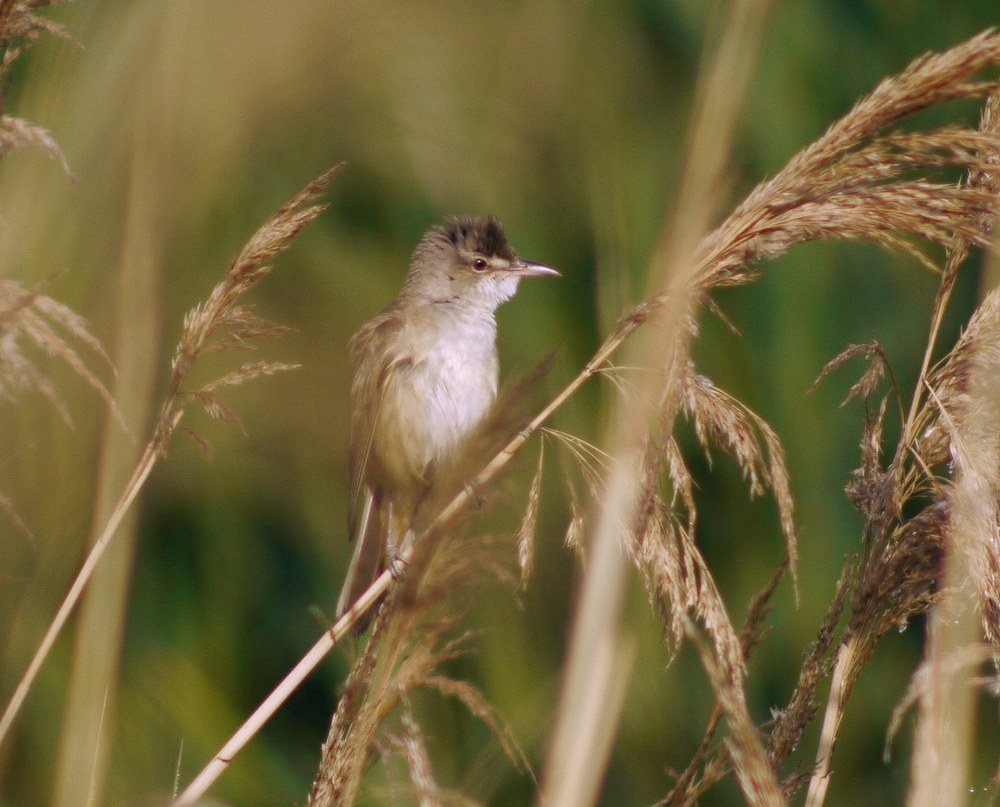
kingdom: Animalia
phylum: Chordata
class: Aves
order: Passeriformes
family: Acrocephalidae
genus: Acrocephalus
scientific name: Acrocephalus arundinaceus
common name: Great reed warbler
